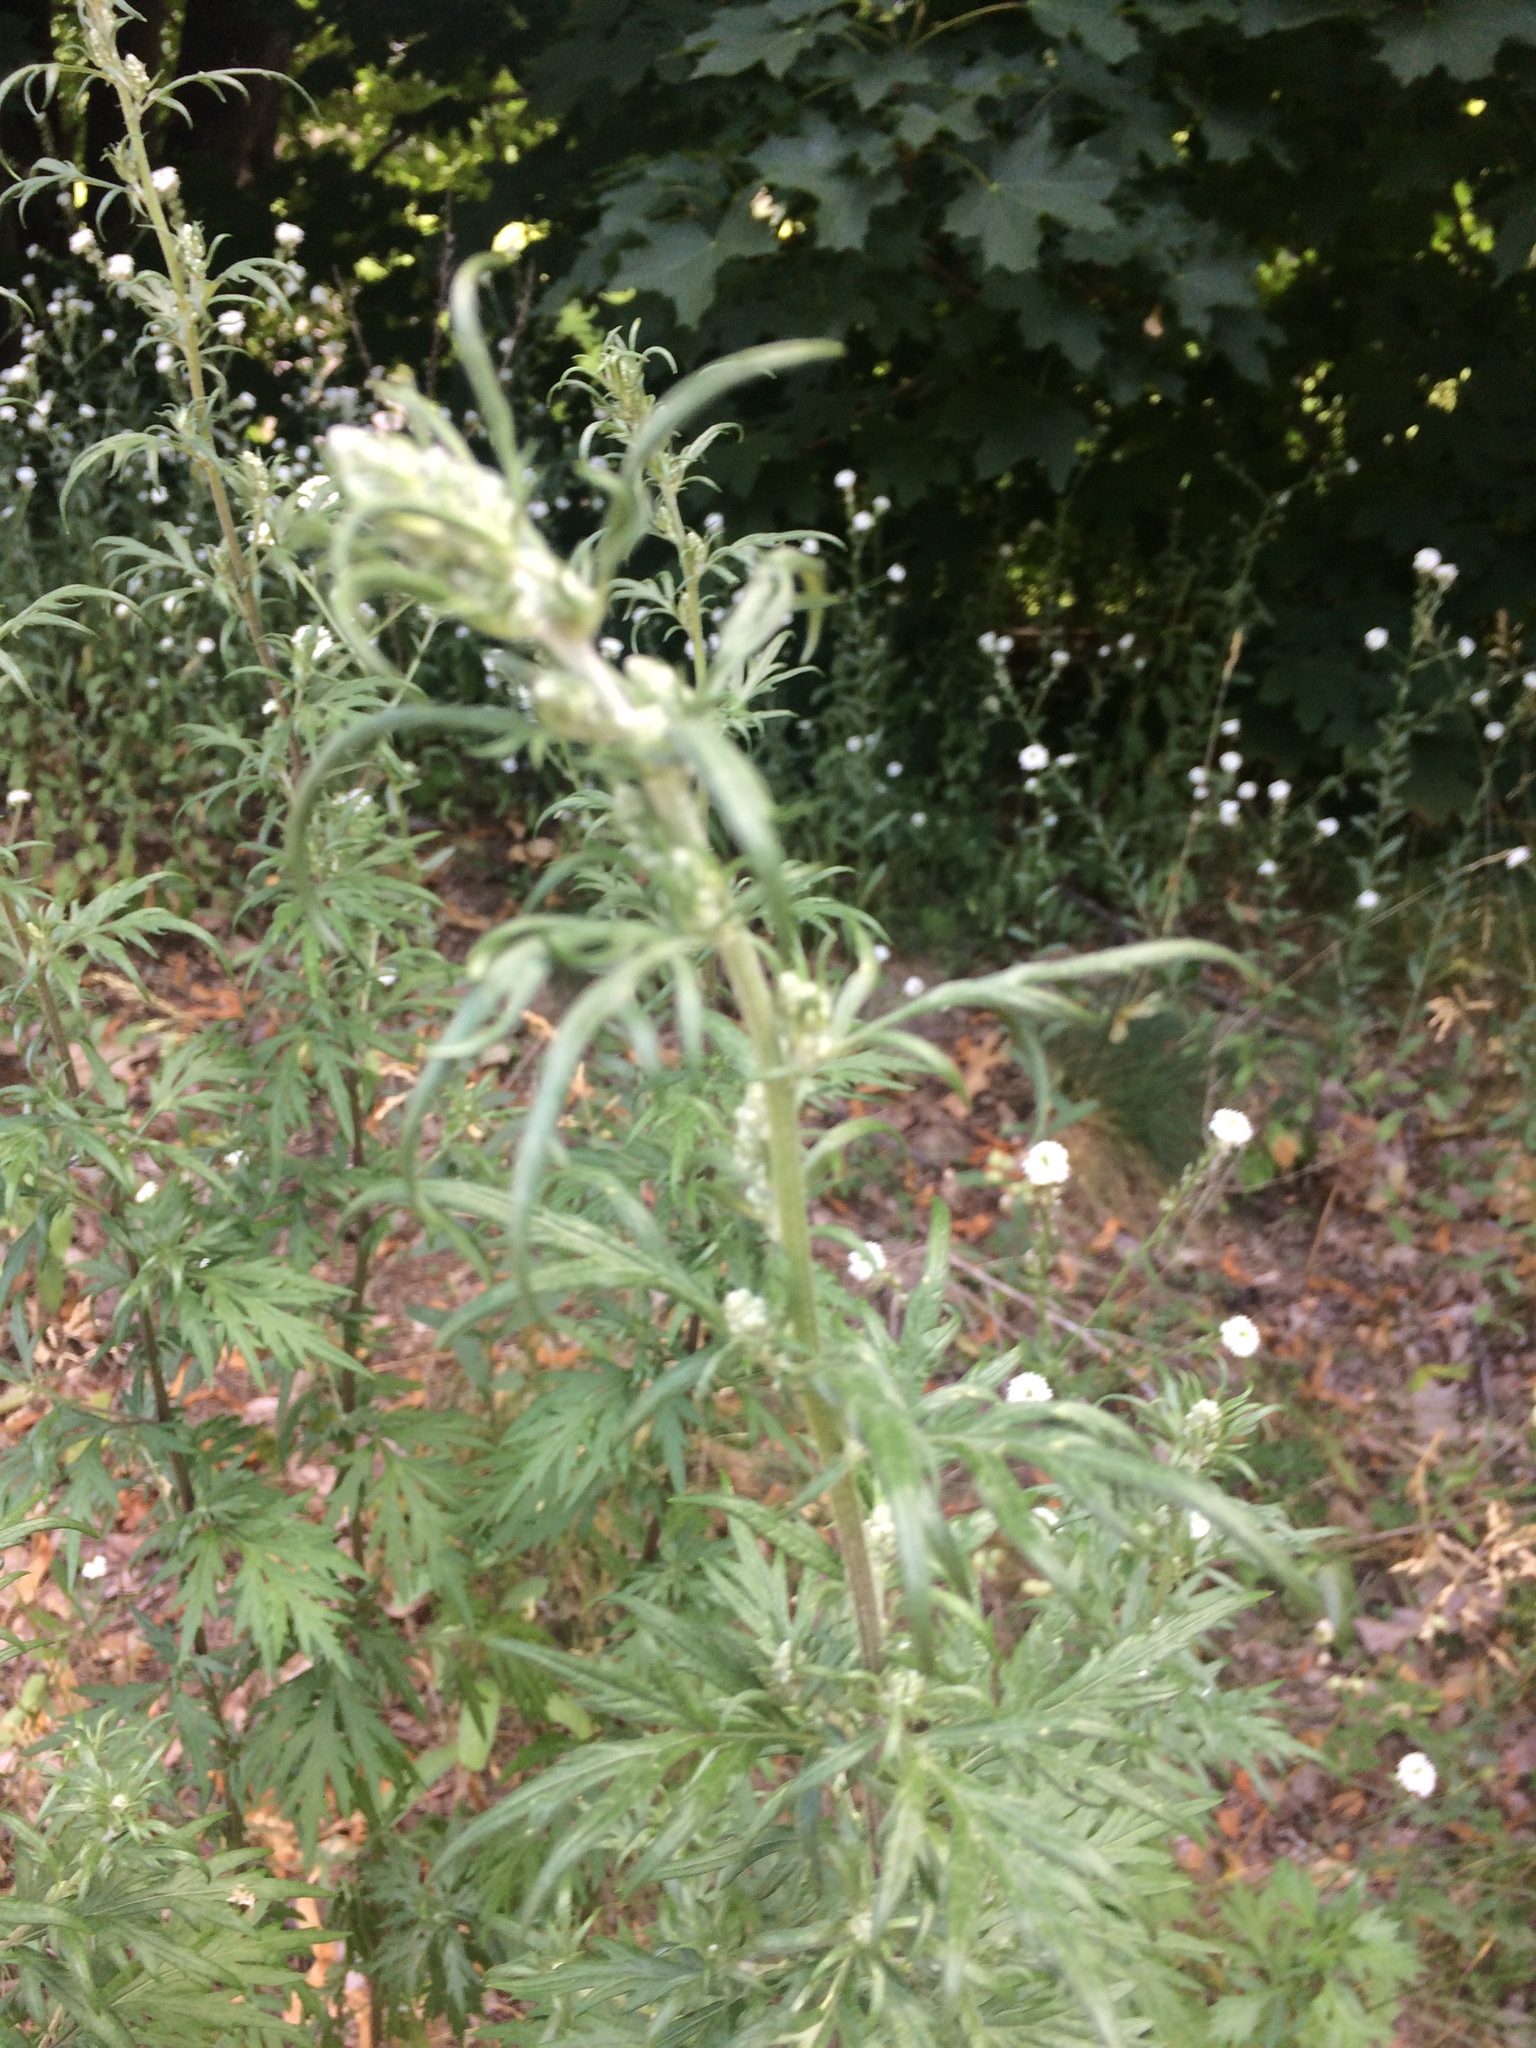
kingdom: Plantae
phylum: Tracheophyta
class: Magnoliopsida
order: Asterales
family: Asteraceae
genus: Artemisia
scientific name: Artemisia vulgaris
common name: Mugwort
